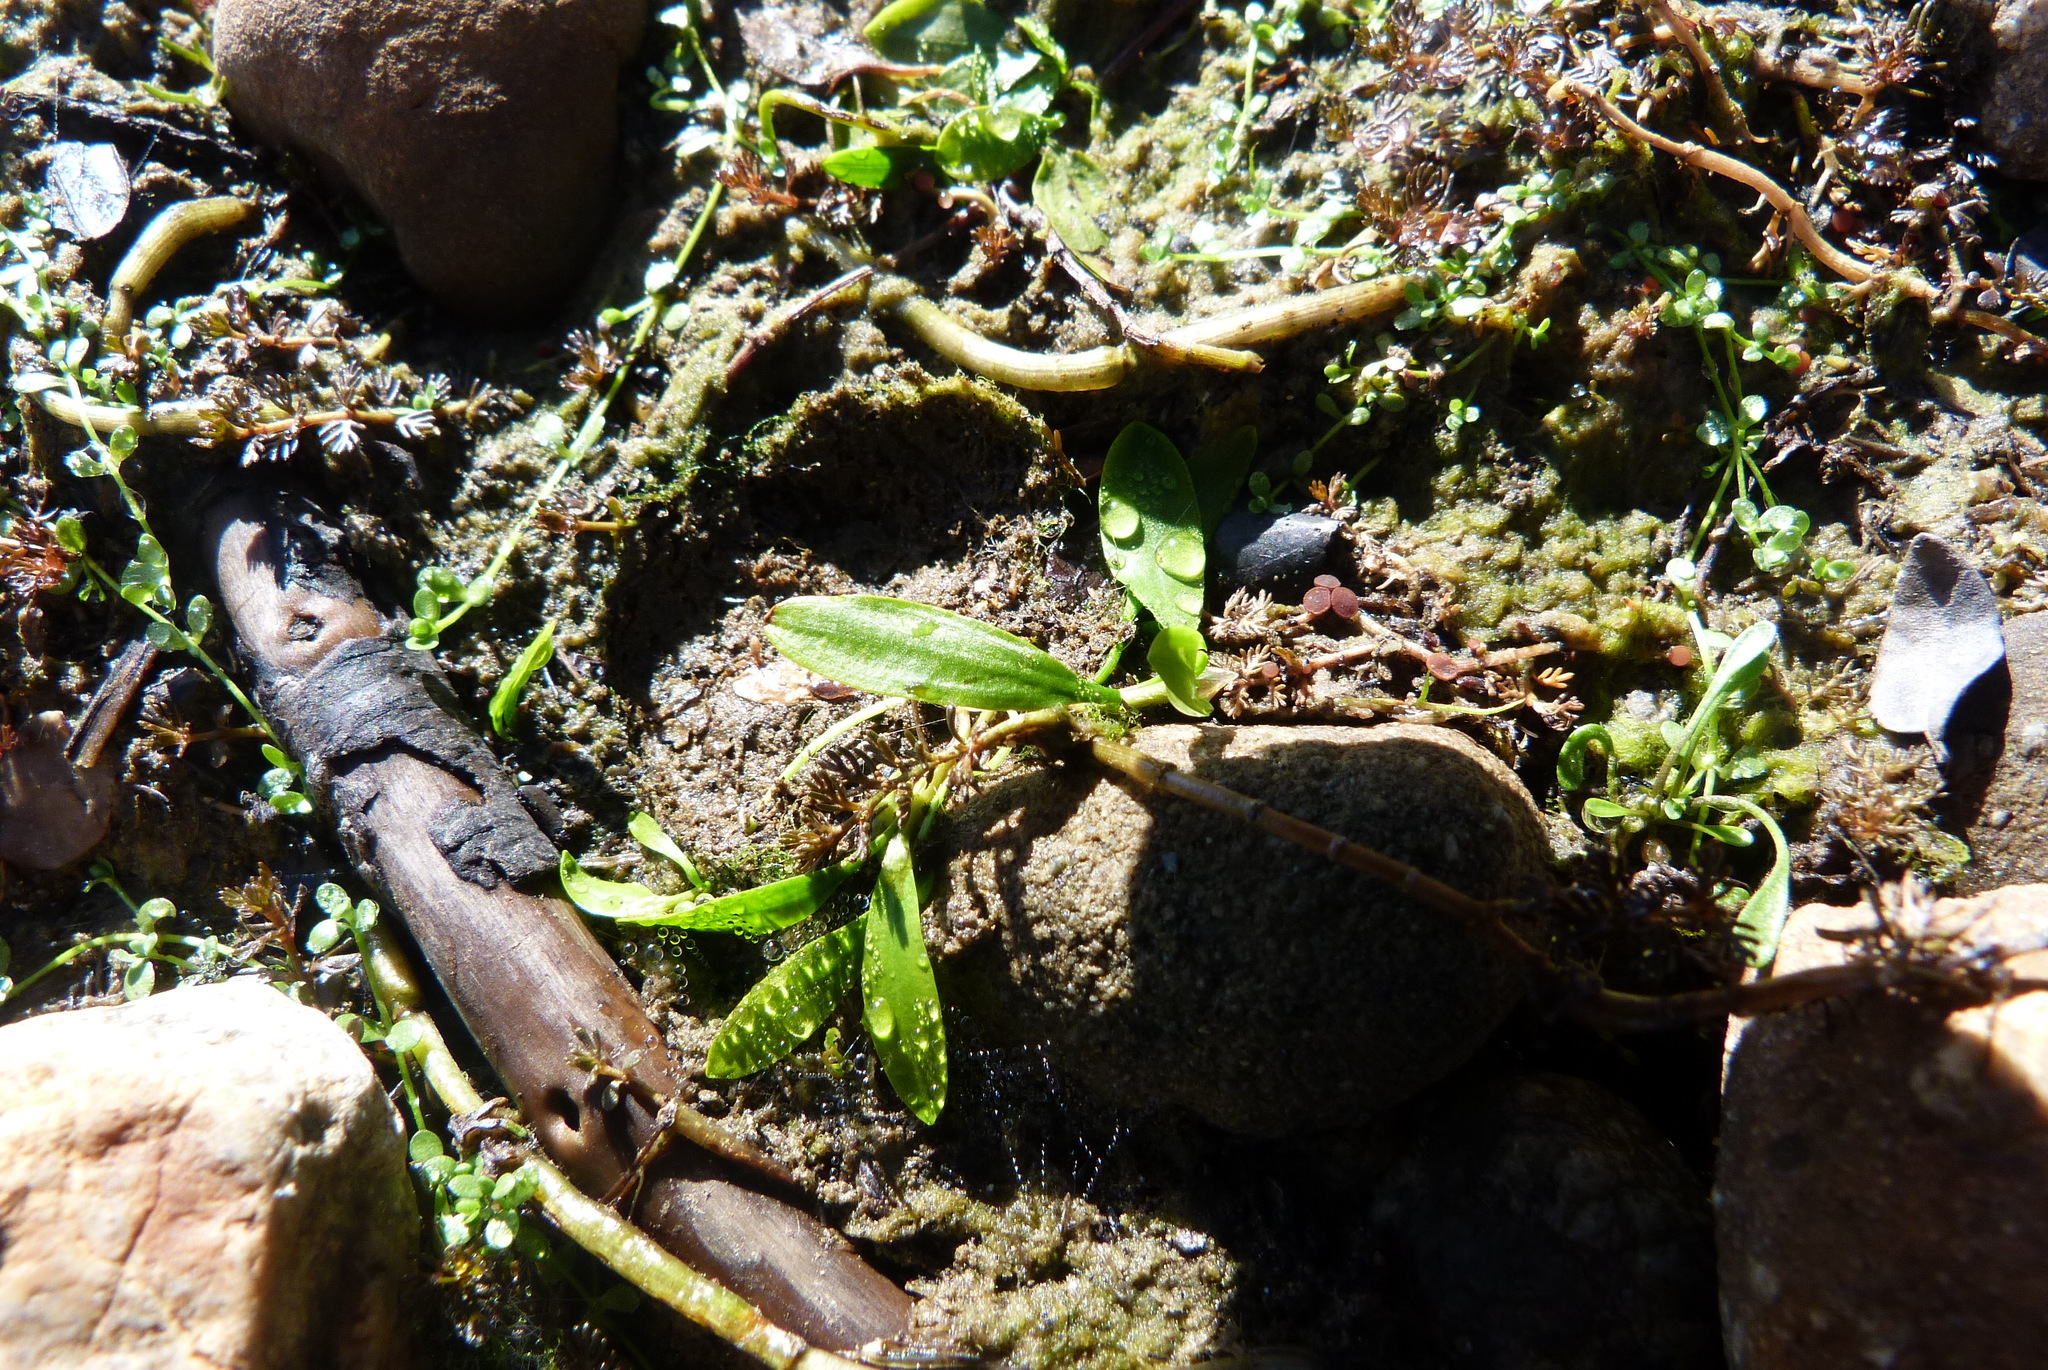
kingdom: Plantae
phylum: Tracheophyta
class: Liliopsida
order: Alismatales
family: Potamogetonaceae
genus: Potamogeton
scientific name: Potamogeton cheesemanii
